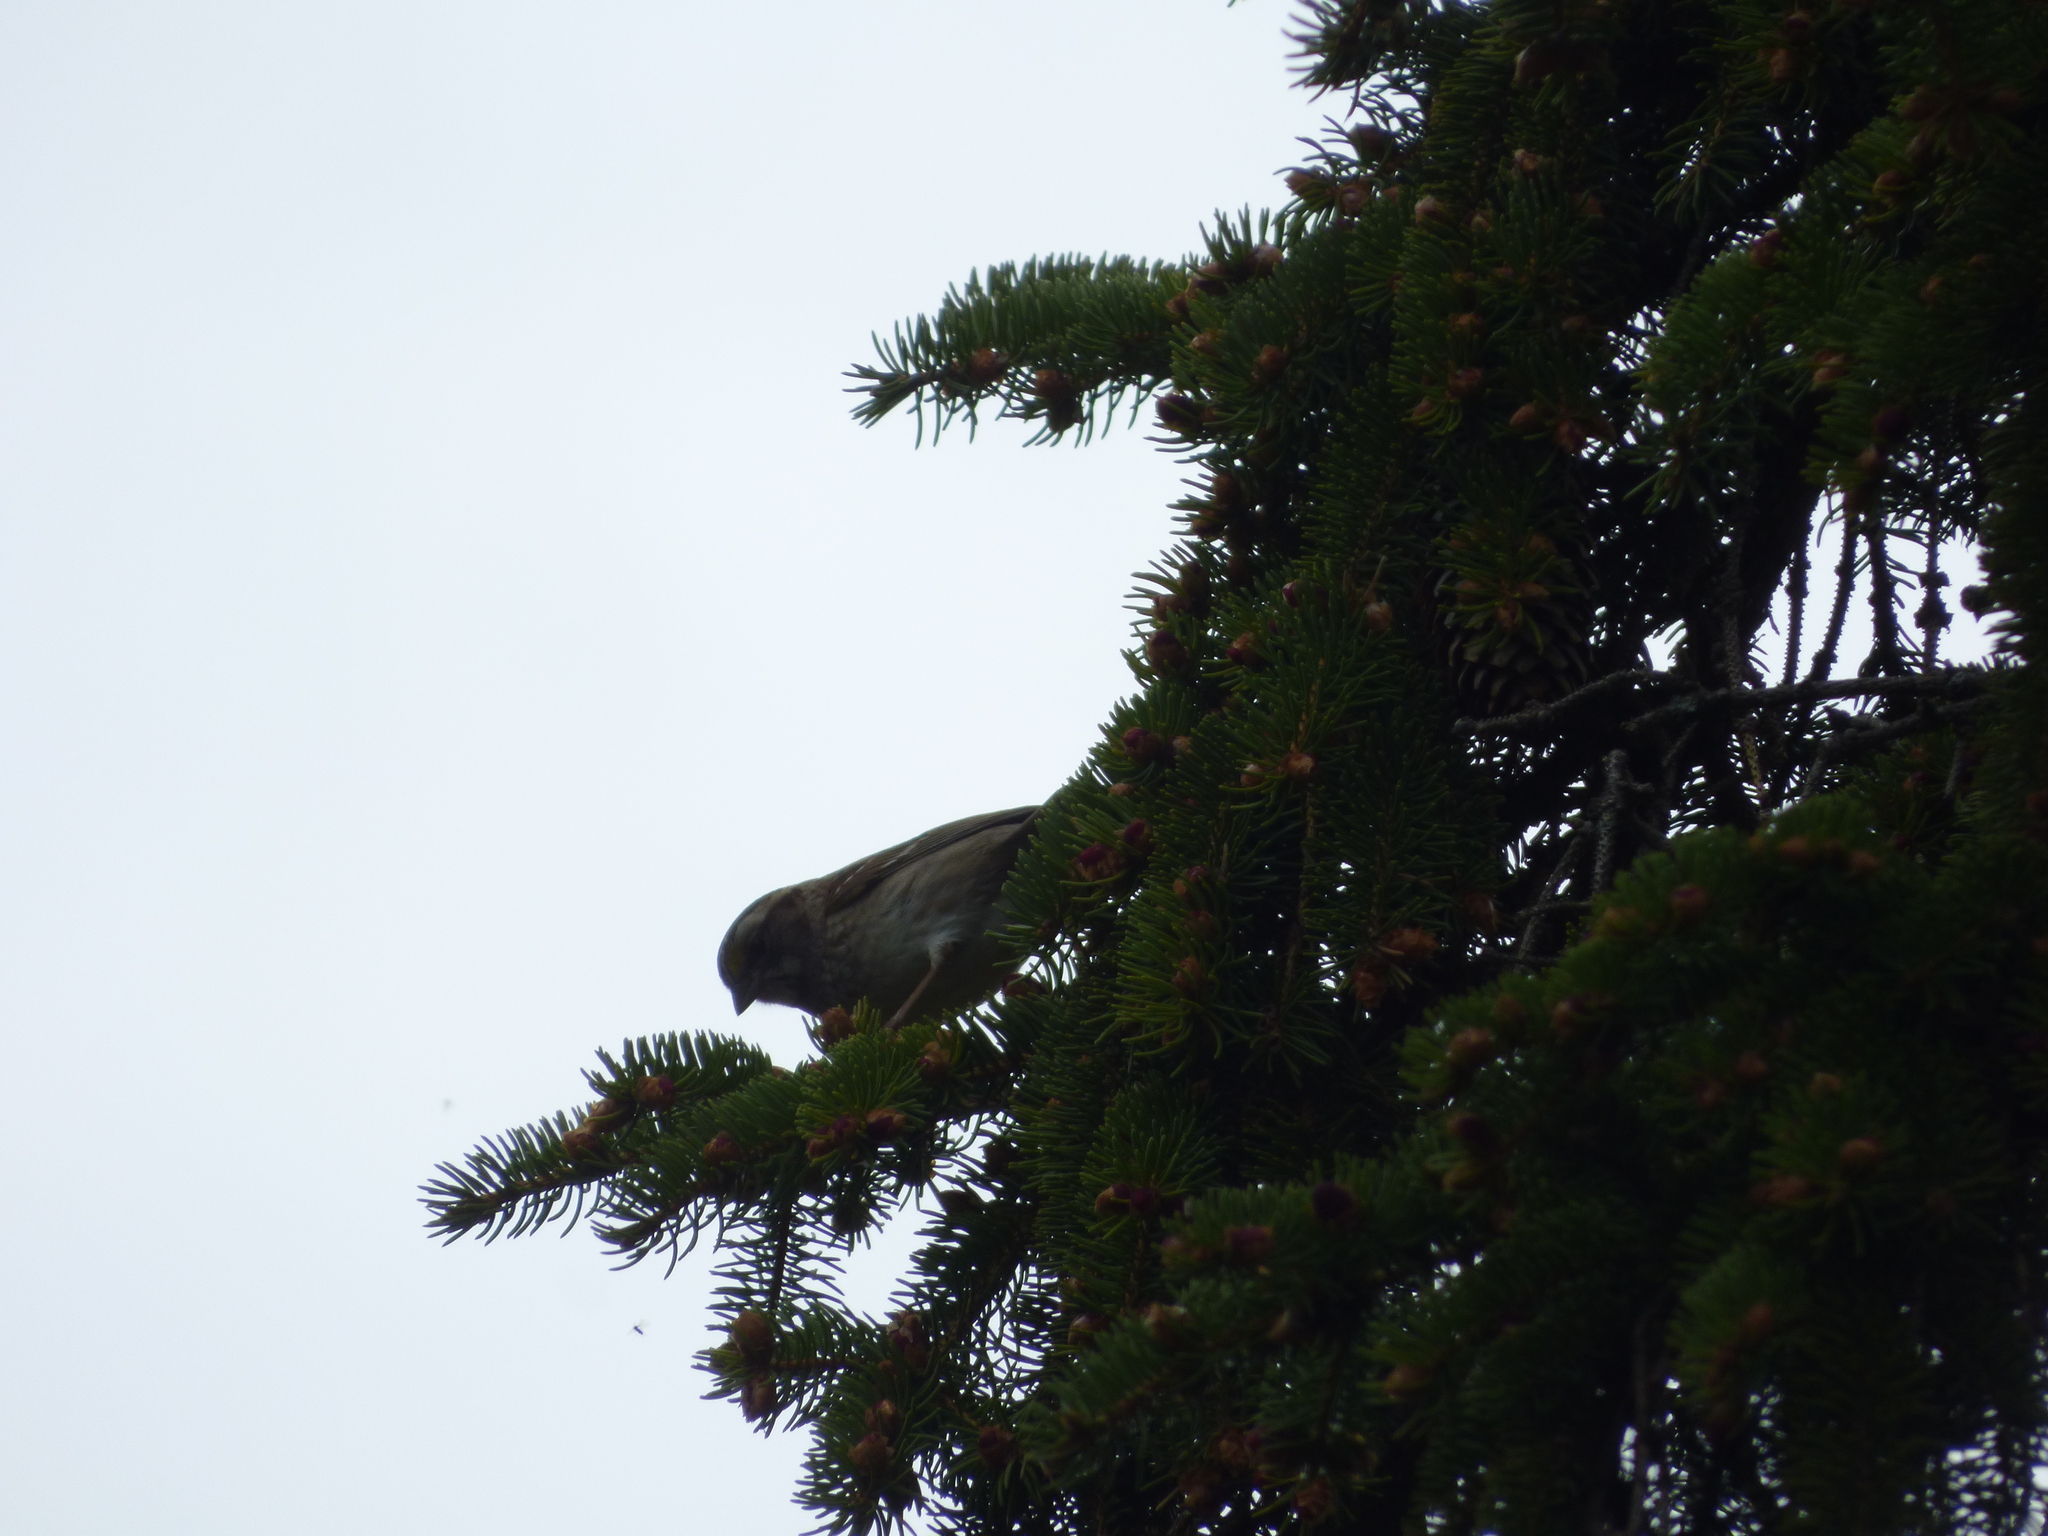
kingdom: Animalia
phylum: Chordata
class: Aves
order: Passeriformes
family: Passerellidae
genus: Zonotrichia
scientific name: Zonotrichia albicollis
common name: White-throated sparrow
